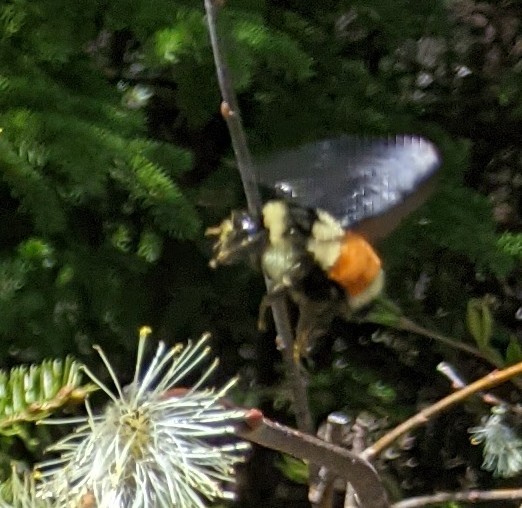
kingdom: Animalia
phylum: Arthropoda
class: Insecta
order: Hymenoptera
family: Apidae
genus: Bombus
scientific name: Bombus ternarius
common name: Tri-colored bumble bee
